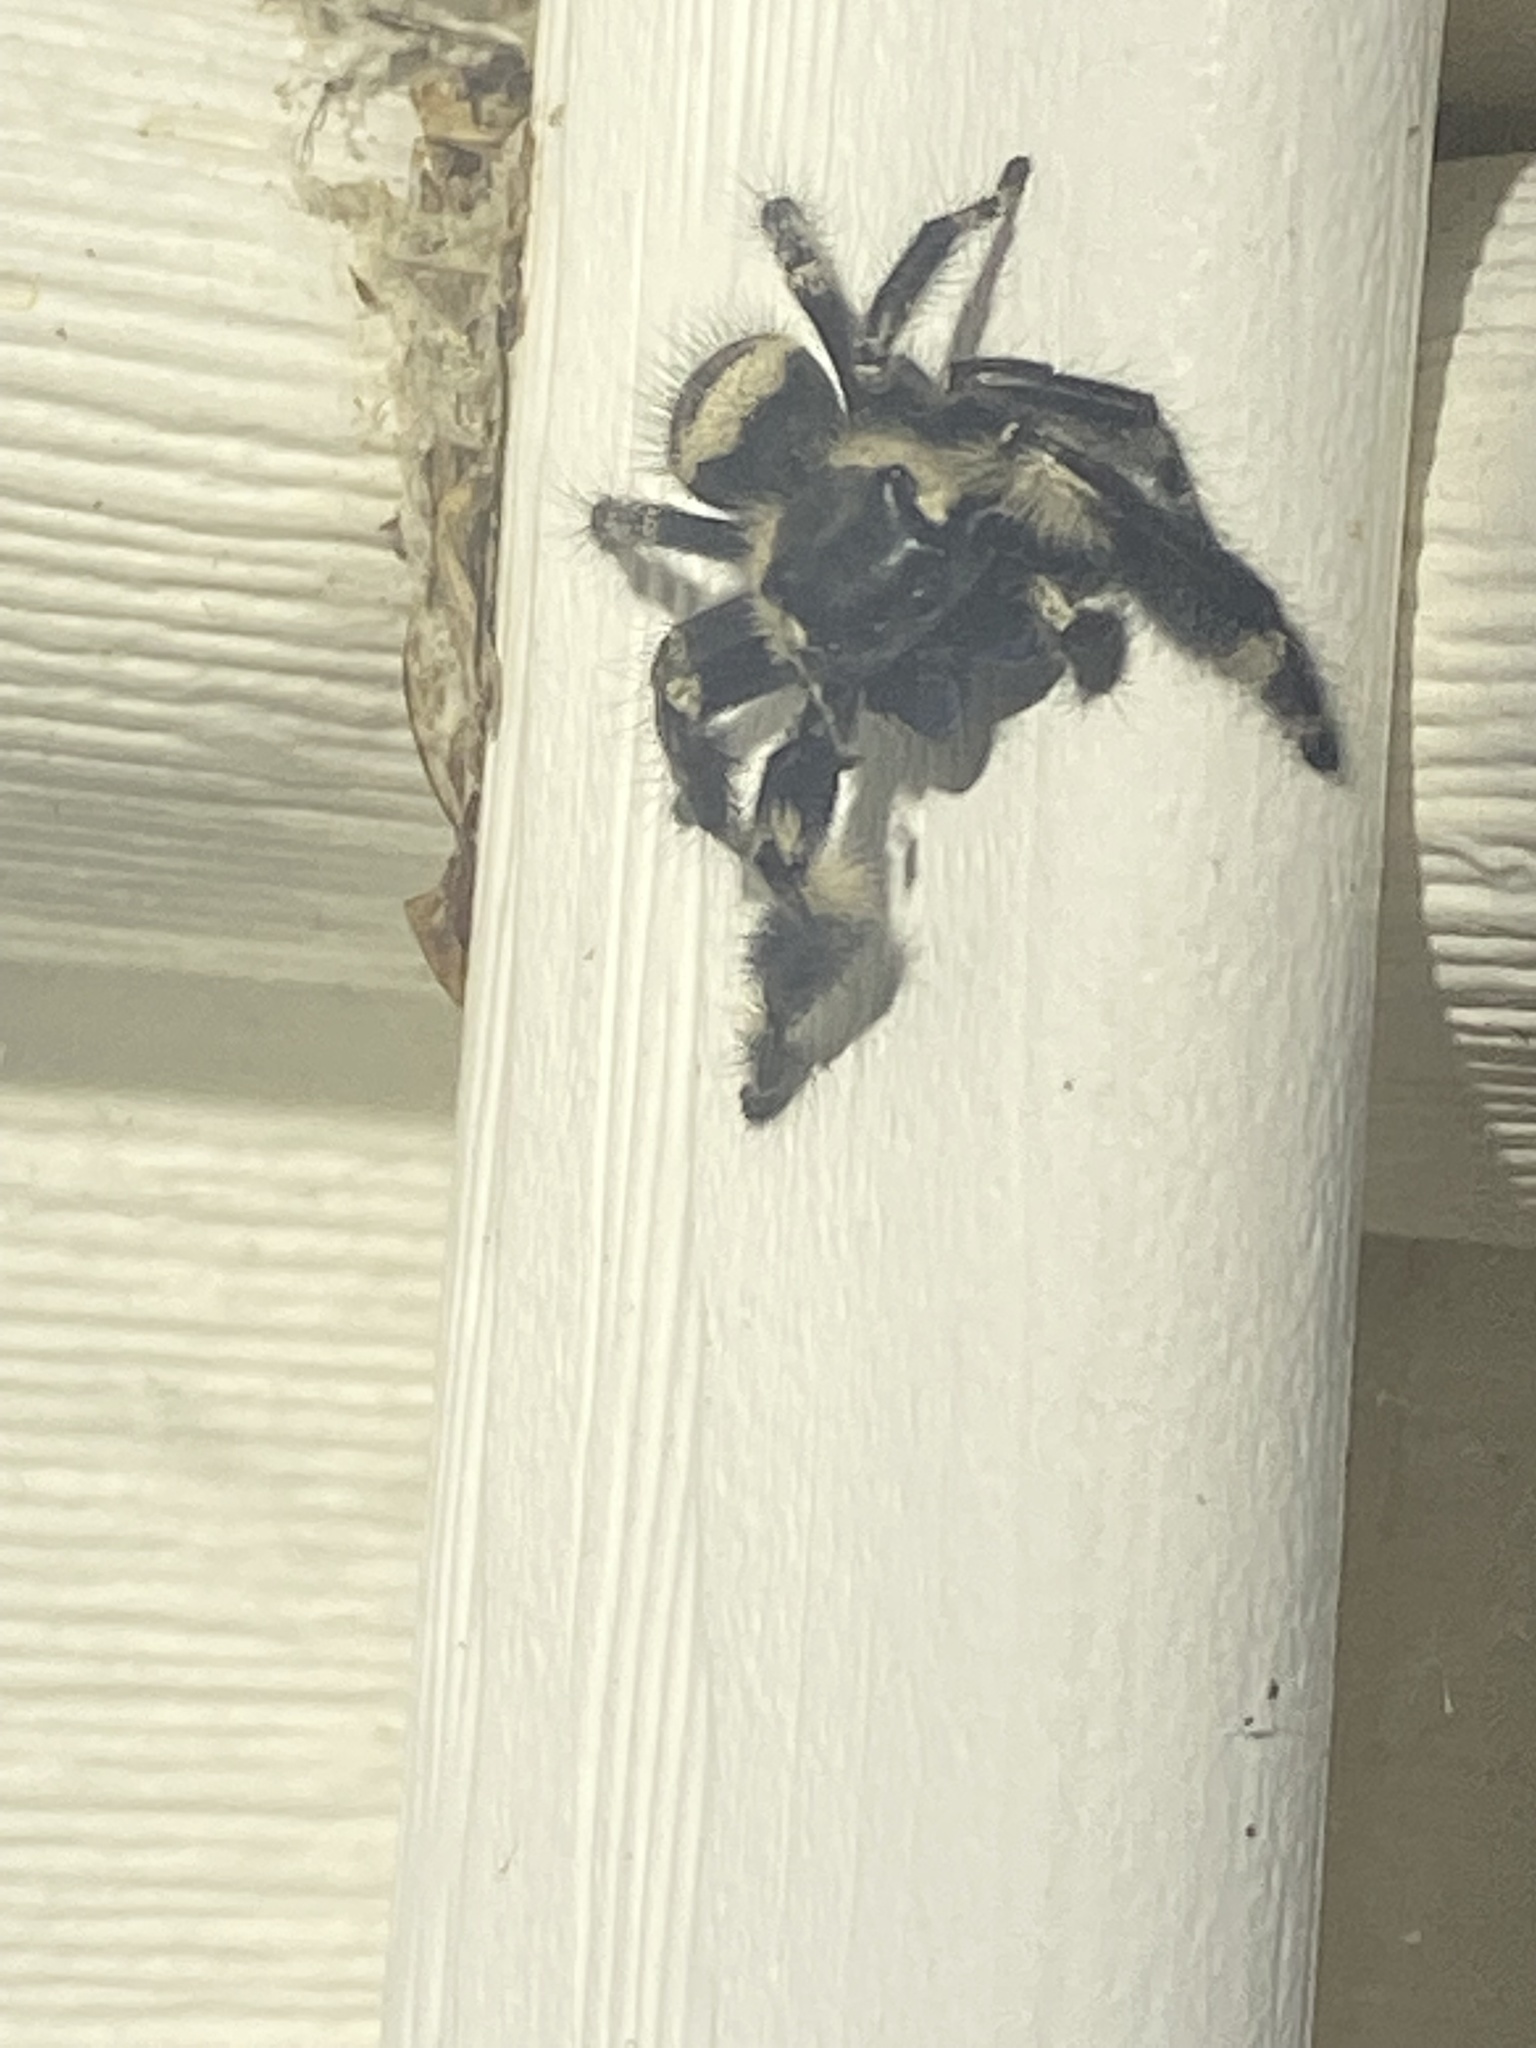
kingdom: Animalia
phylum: Arthropoda
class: Arachnida
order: Araneae
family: Salticidae
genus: Phidippus
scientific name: Phidippus otiosus
